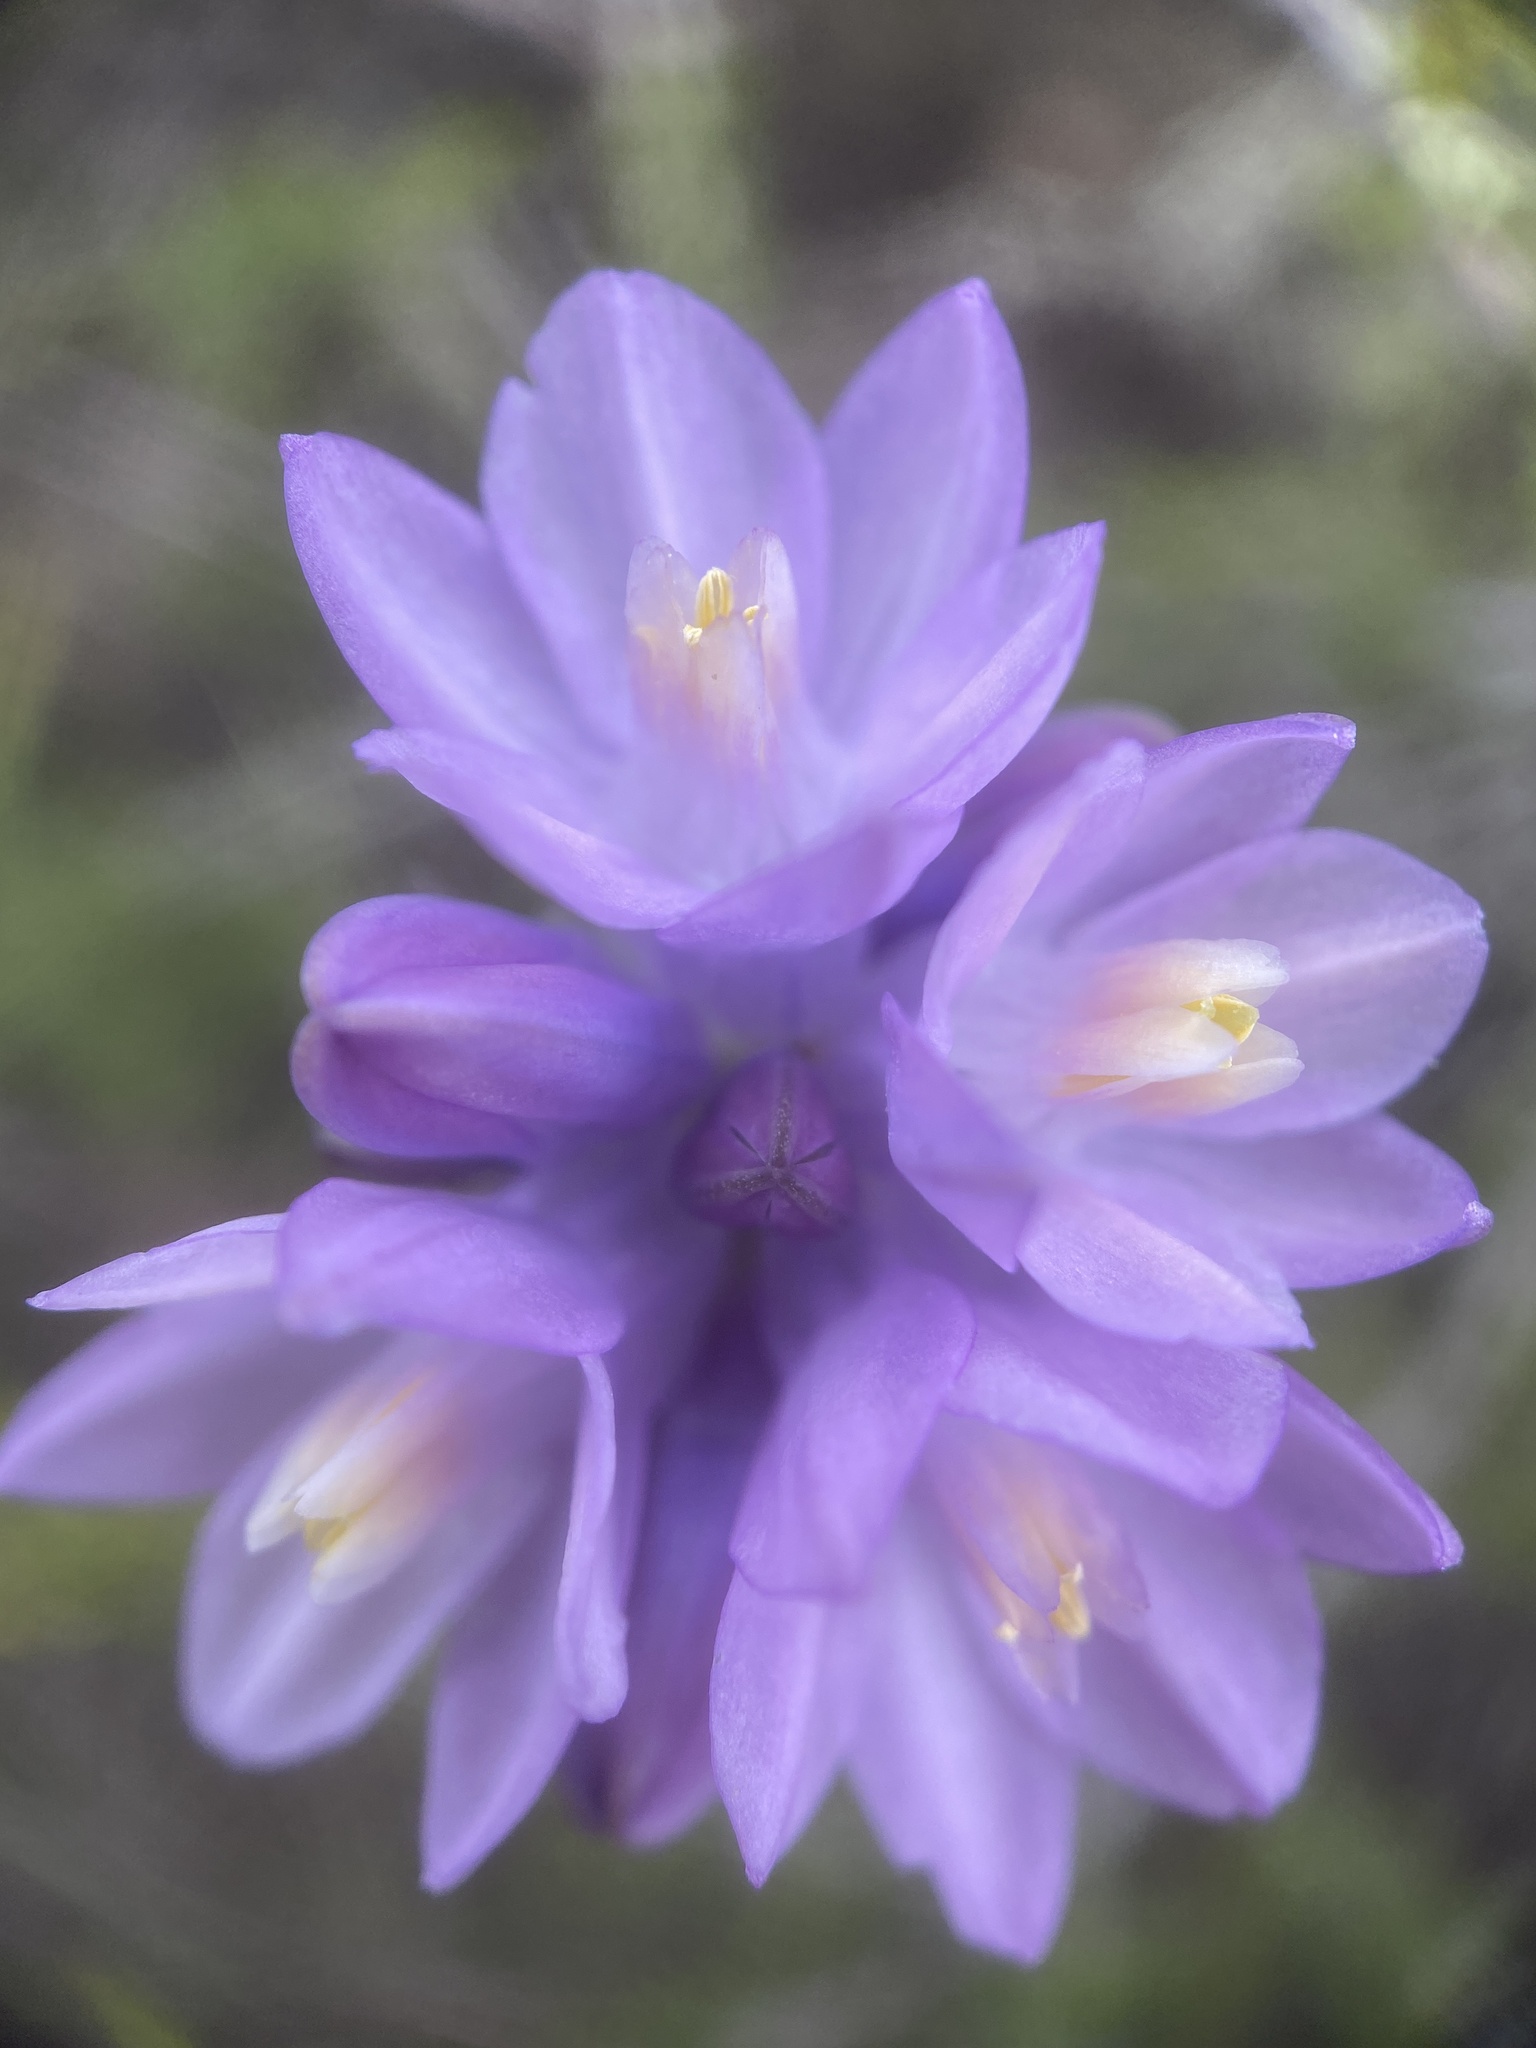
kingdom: Plantae
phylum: Tracheophyta
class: Liliopsida
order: Asparagales
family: Asparagaceae
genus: Dipterostemon
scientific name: Dipterostemon capitatus
